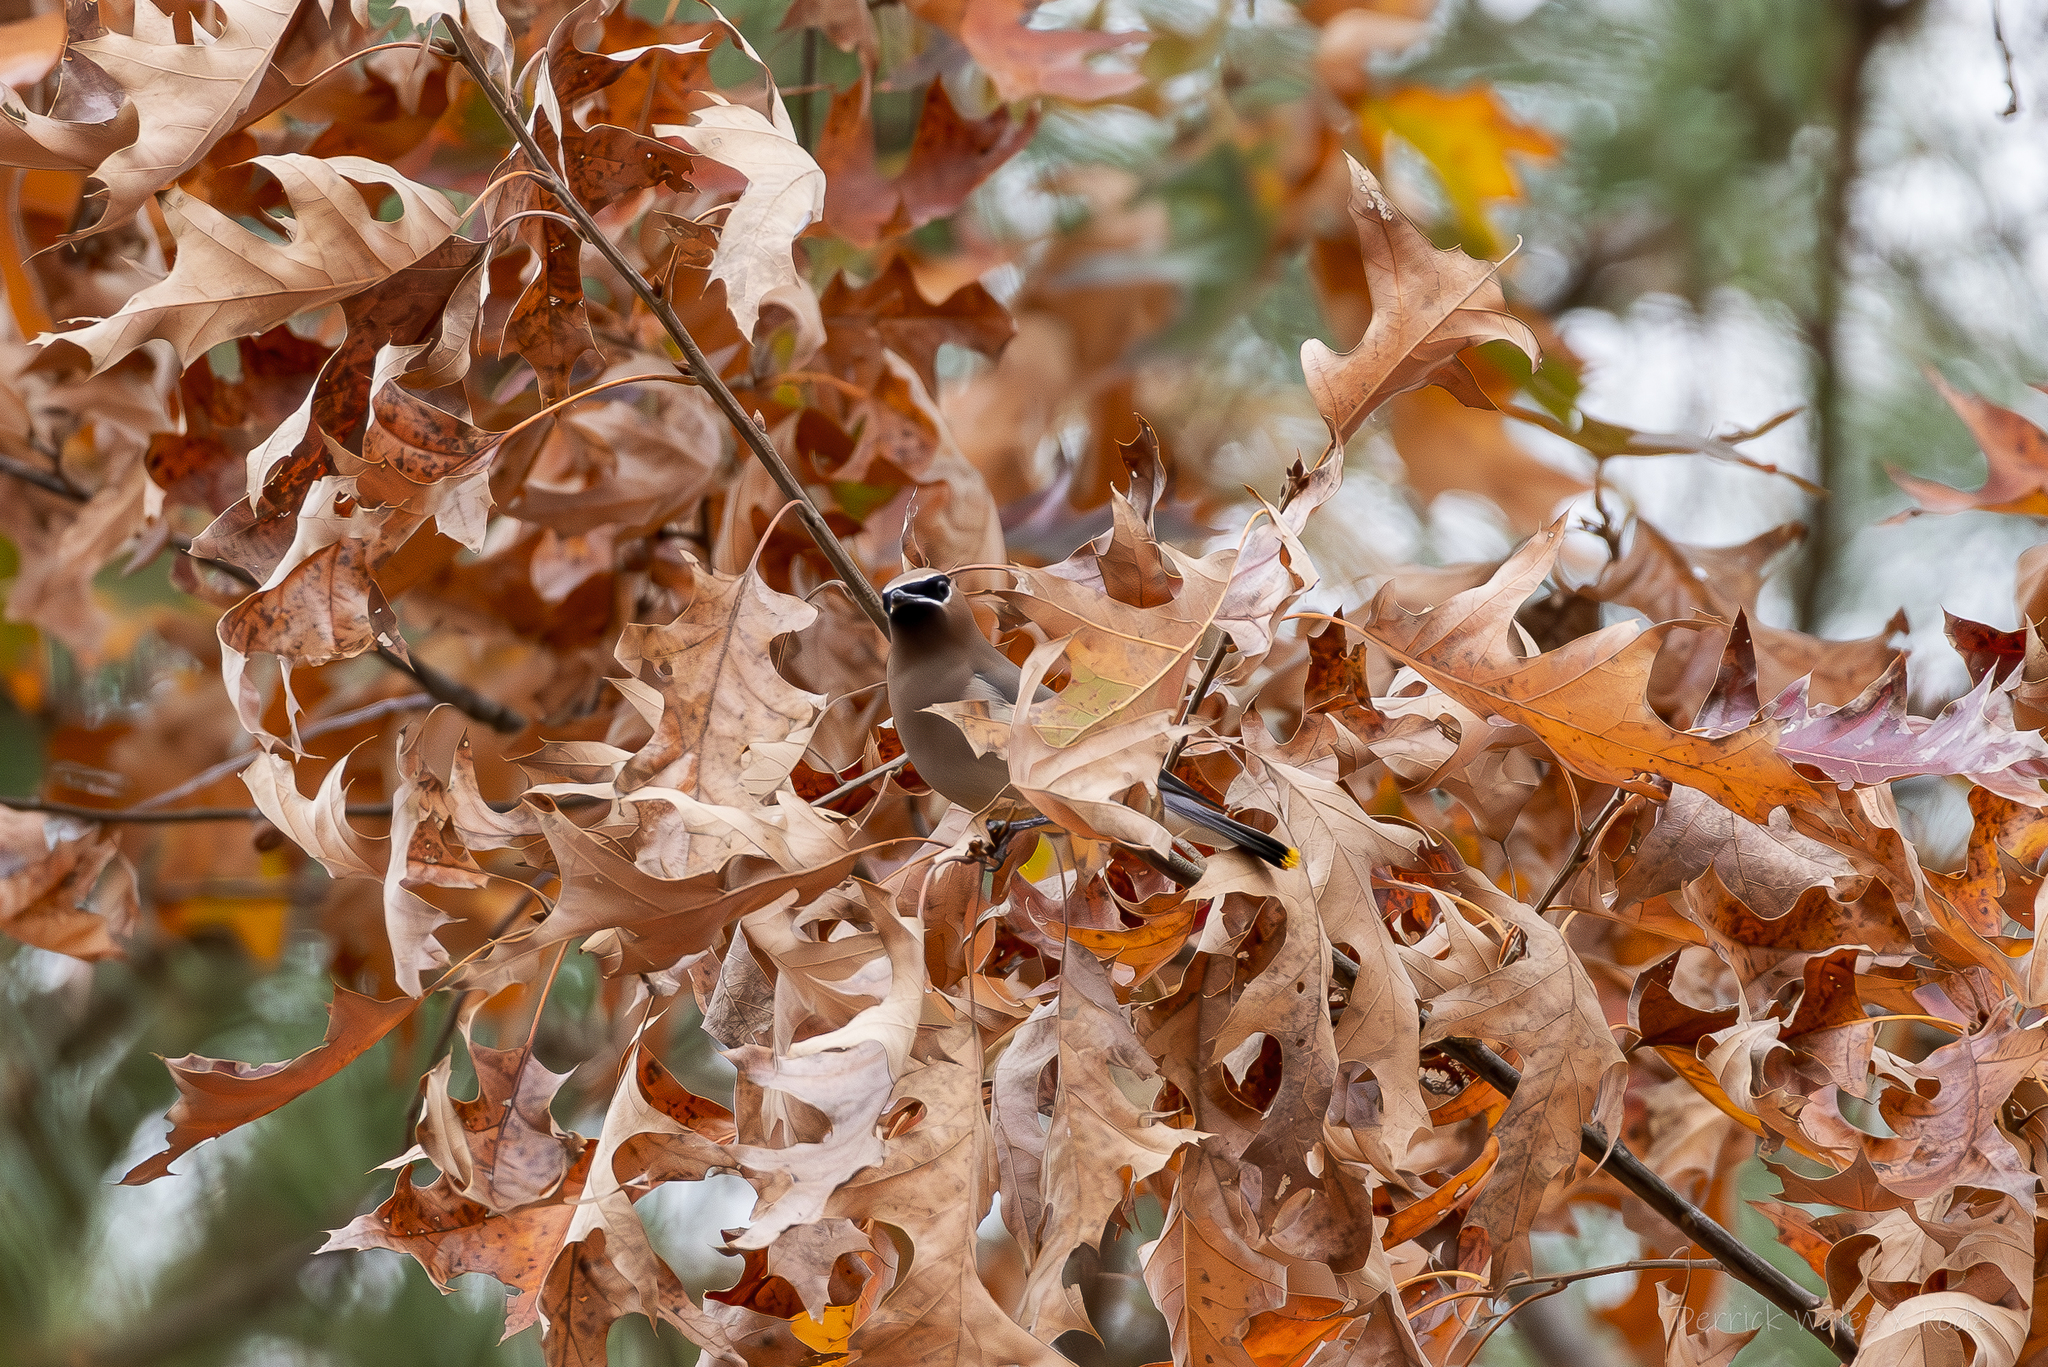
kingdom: Animalia
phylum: Chordata
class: Aves
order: Passeriformes
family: Bombycillidae
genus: Bombycilla
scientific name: Bombycilla cedrorum
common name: Cedar waxwing
